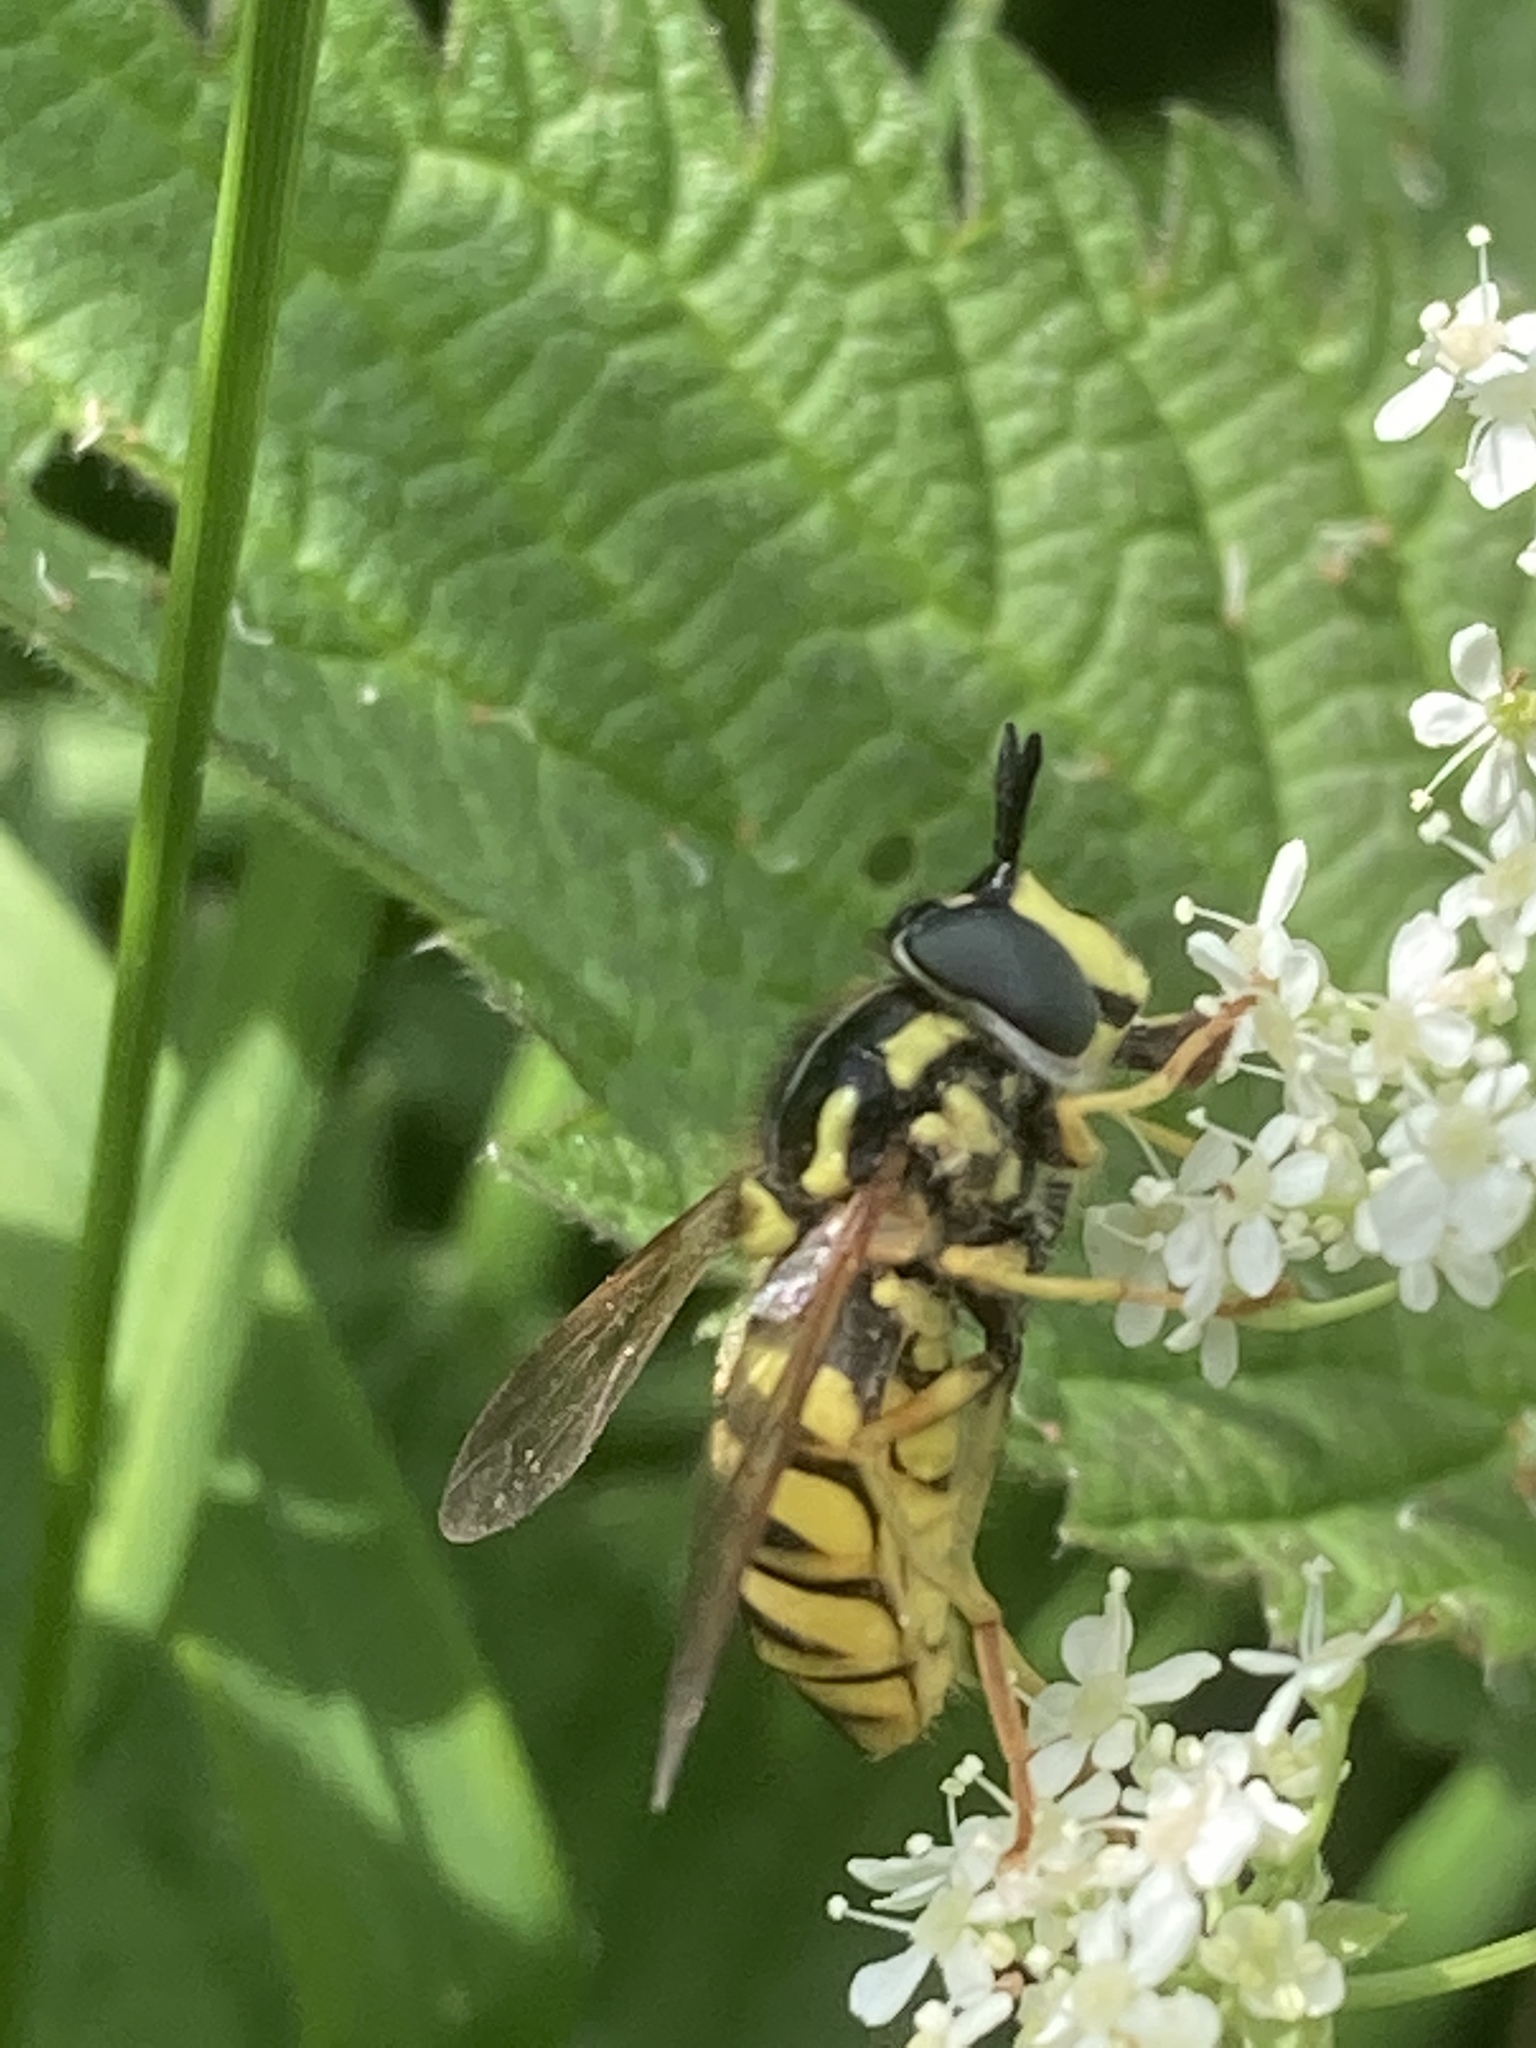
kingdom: Animalia
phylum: Arthropoda
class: Insecta
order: Diptera
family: Syrphidae
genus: Chrysotoxum
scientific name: Chrysotoxum cautum
